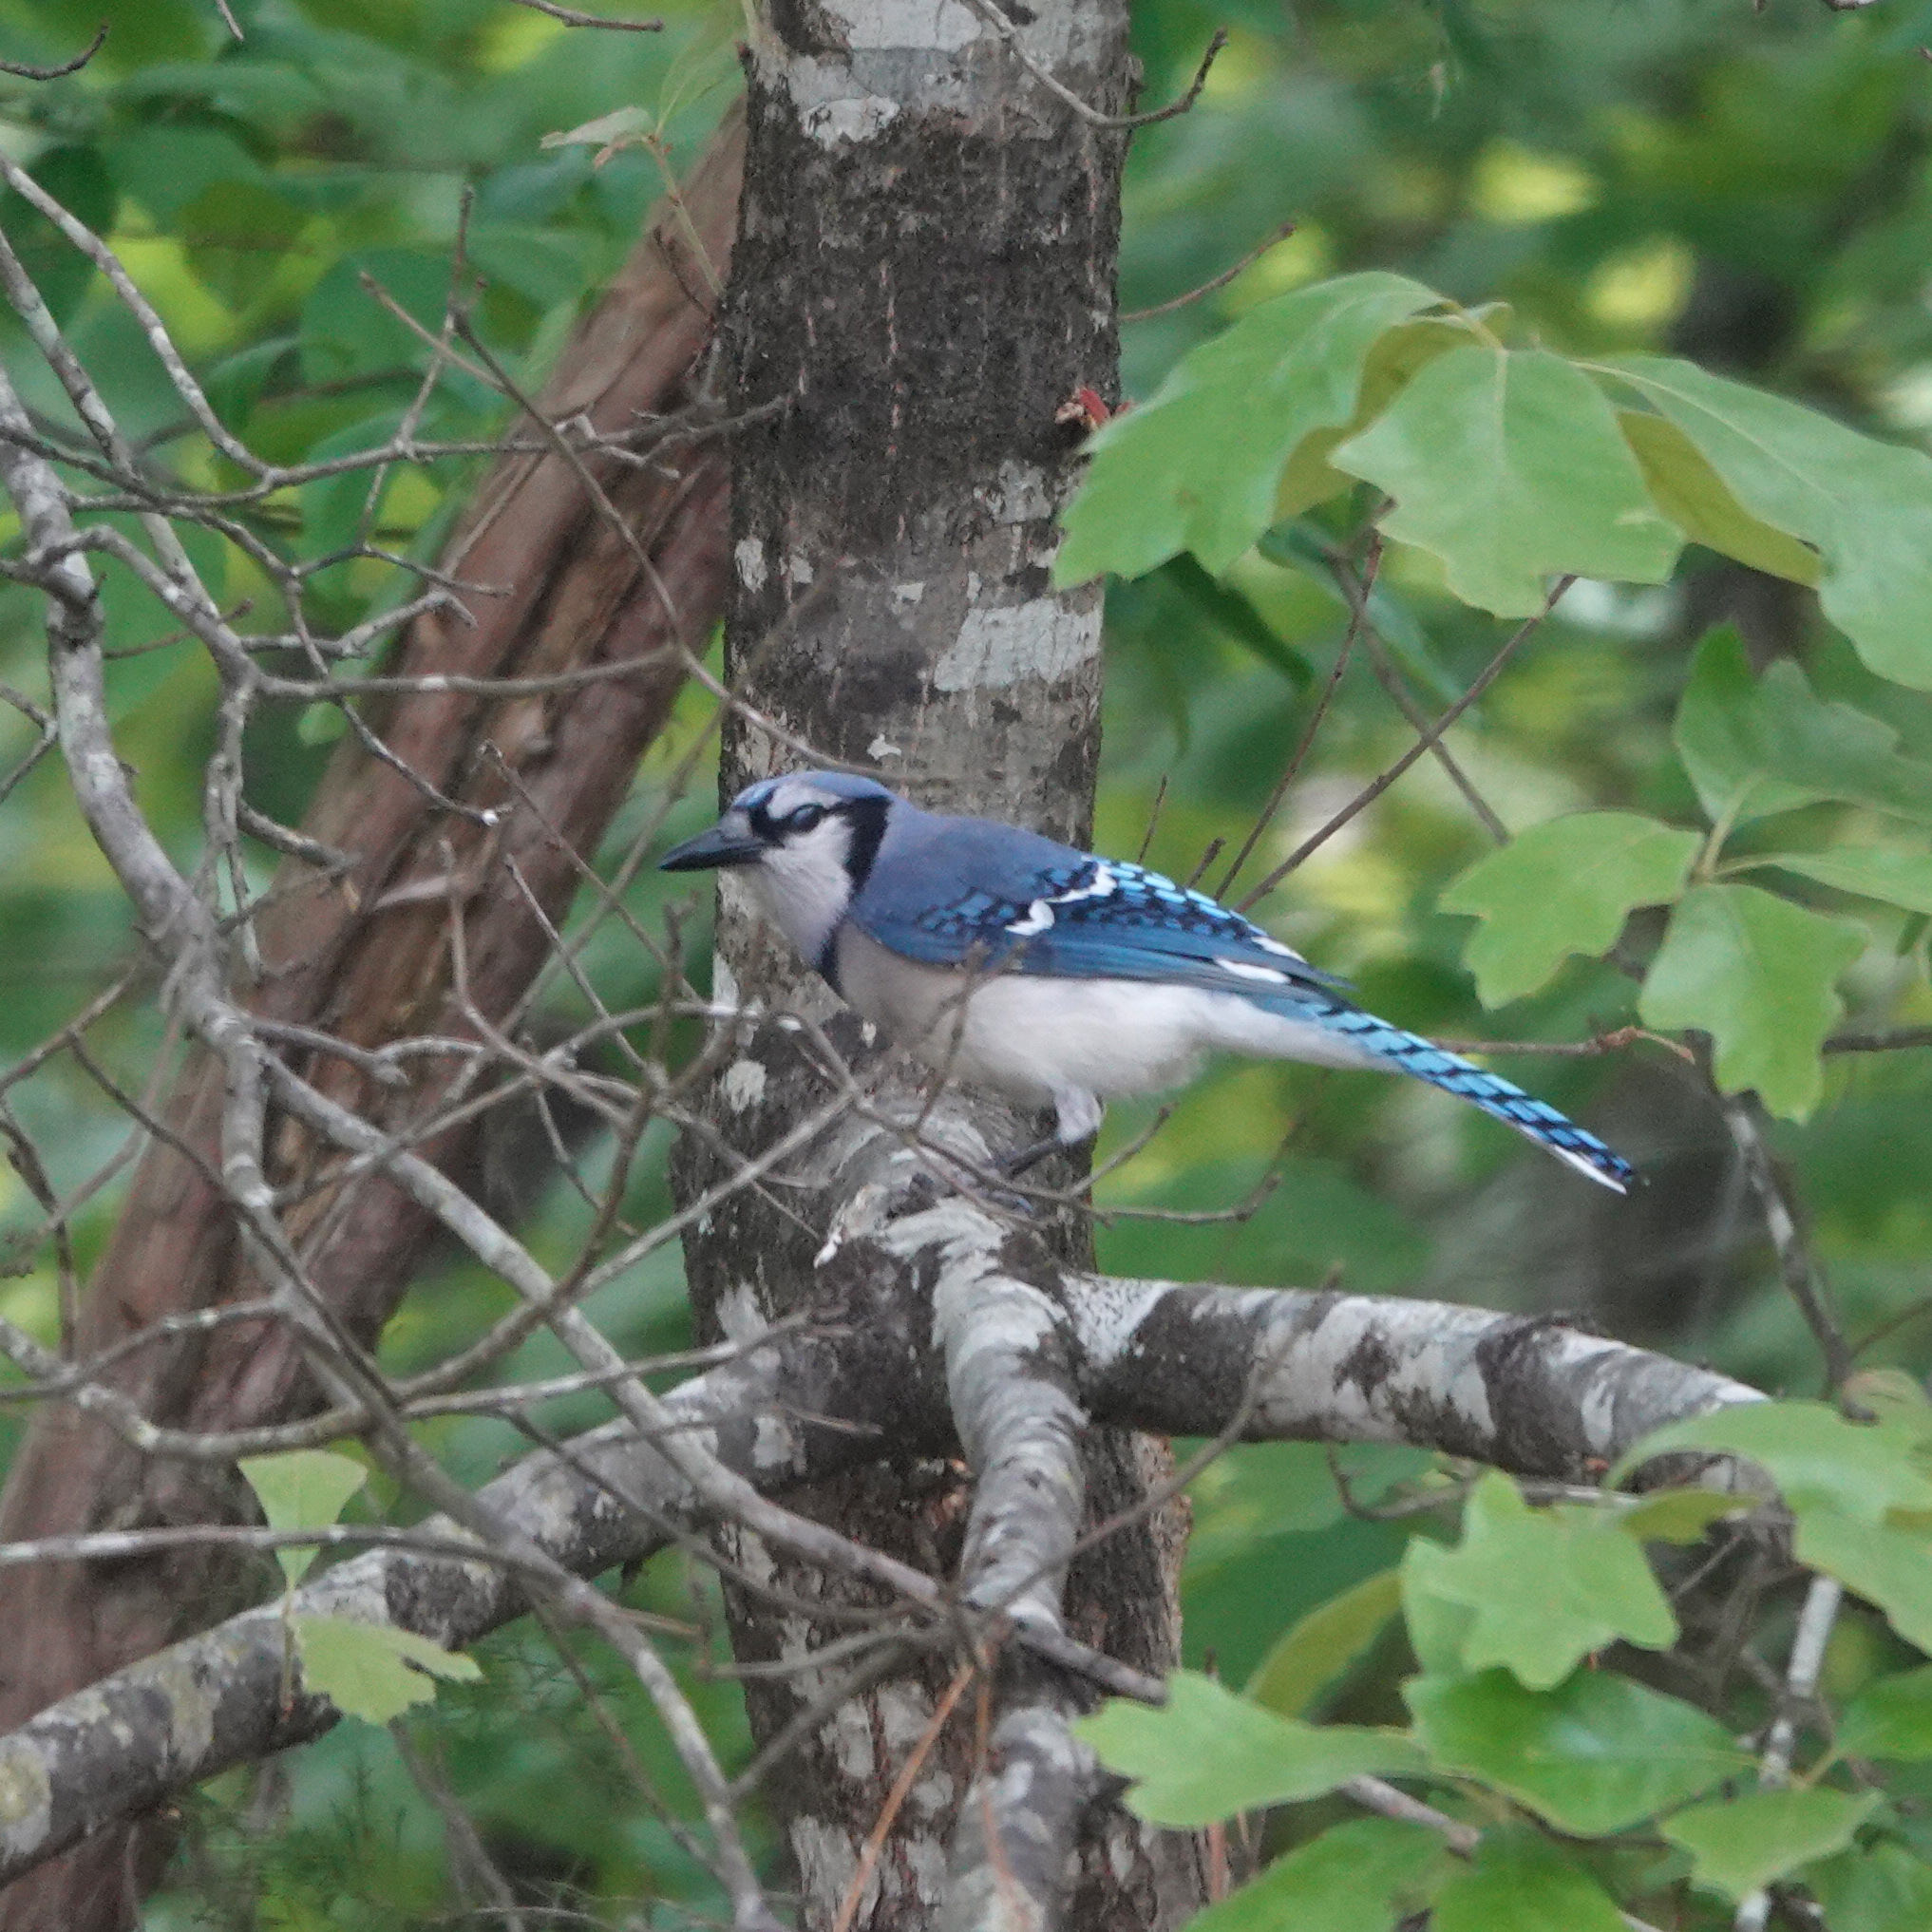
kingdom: Animalia
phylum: Chordata
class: Aves
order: Passeriformes
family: Corvidae
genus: Cyanocitta
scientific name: Cyanocitta cristata
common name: Blue jay
